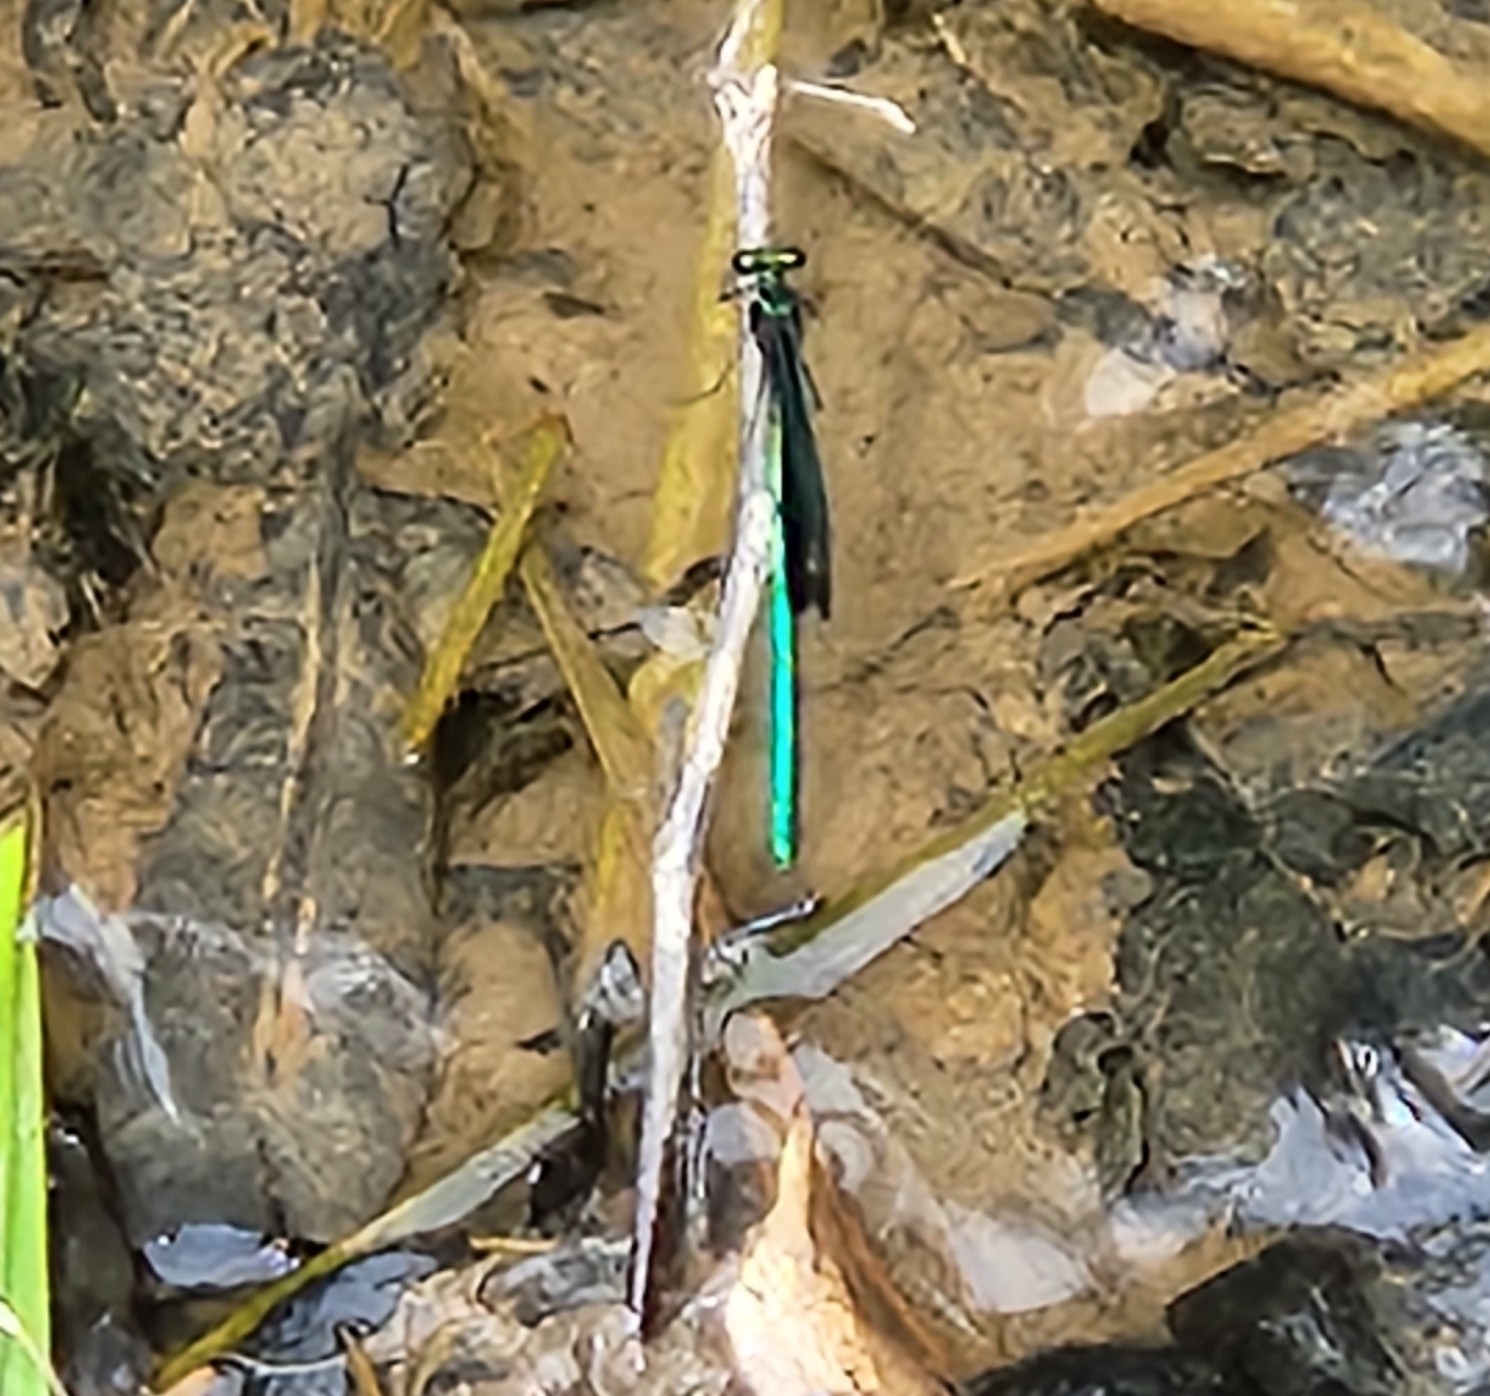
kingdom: Animalia
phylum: Arthropoda
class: Insecta
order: Odonata
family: Calopterygidae
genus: Calopteryx
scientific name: Calopteryx maculata
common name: Ebony jewelwing
